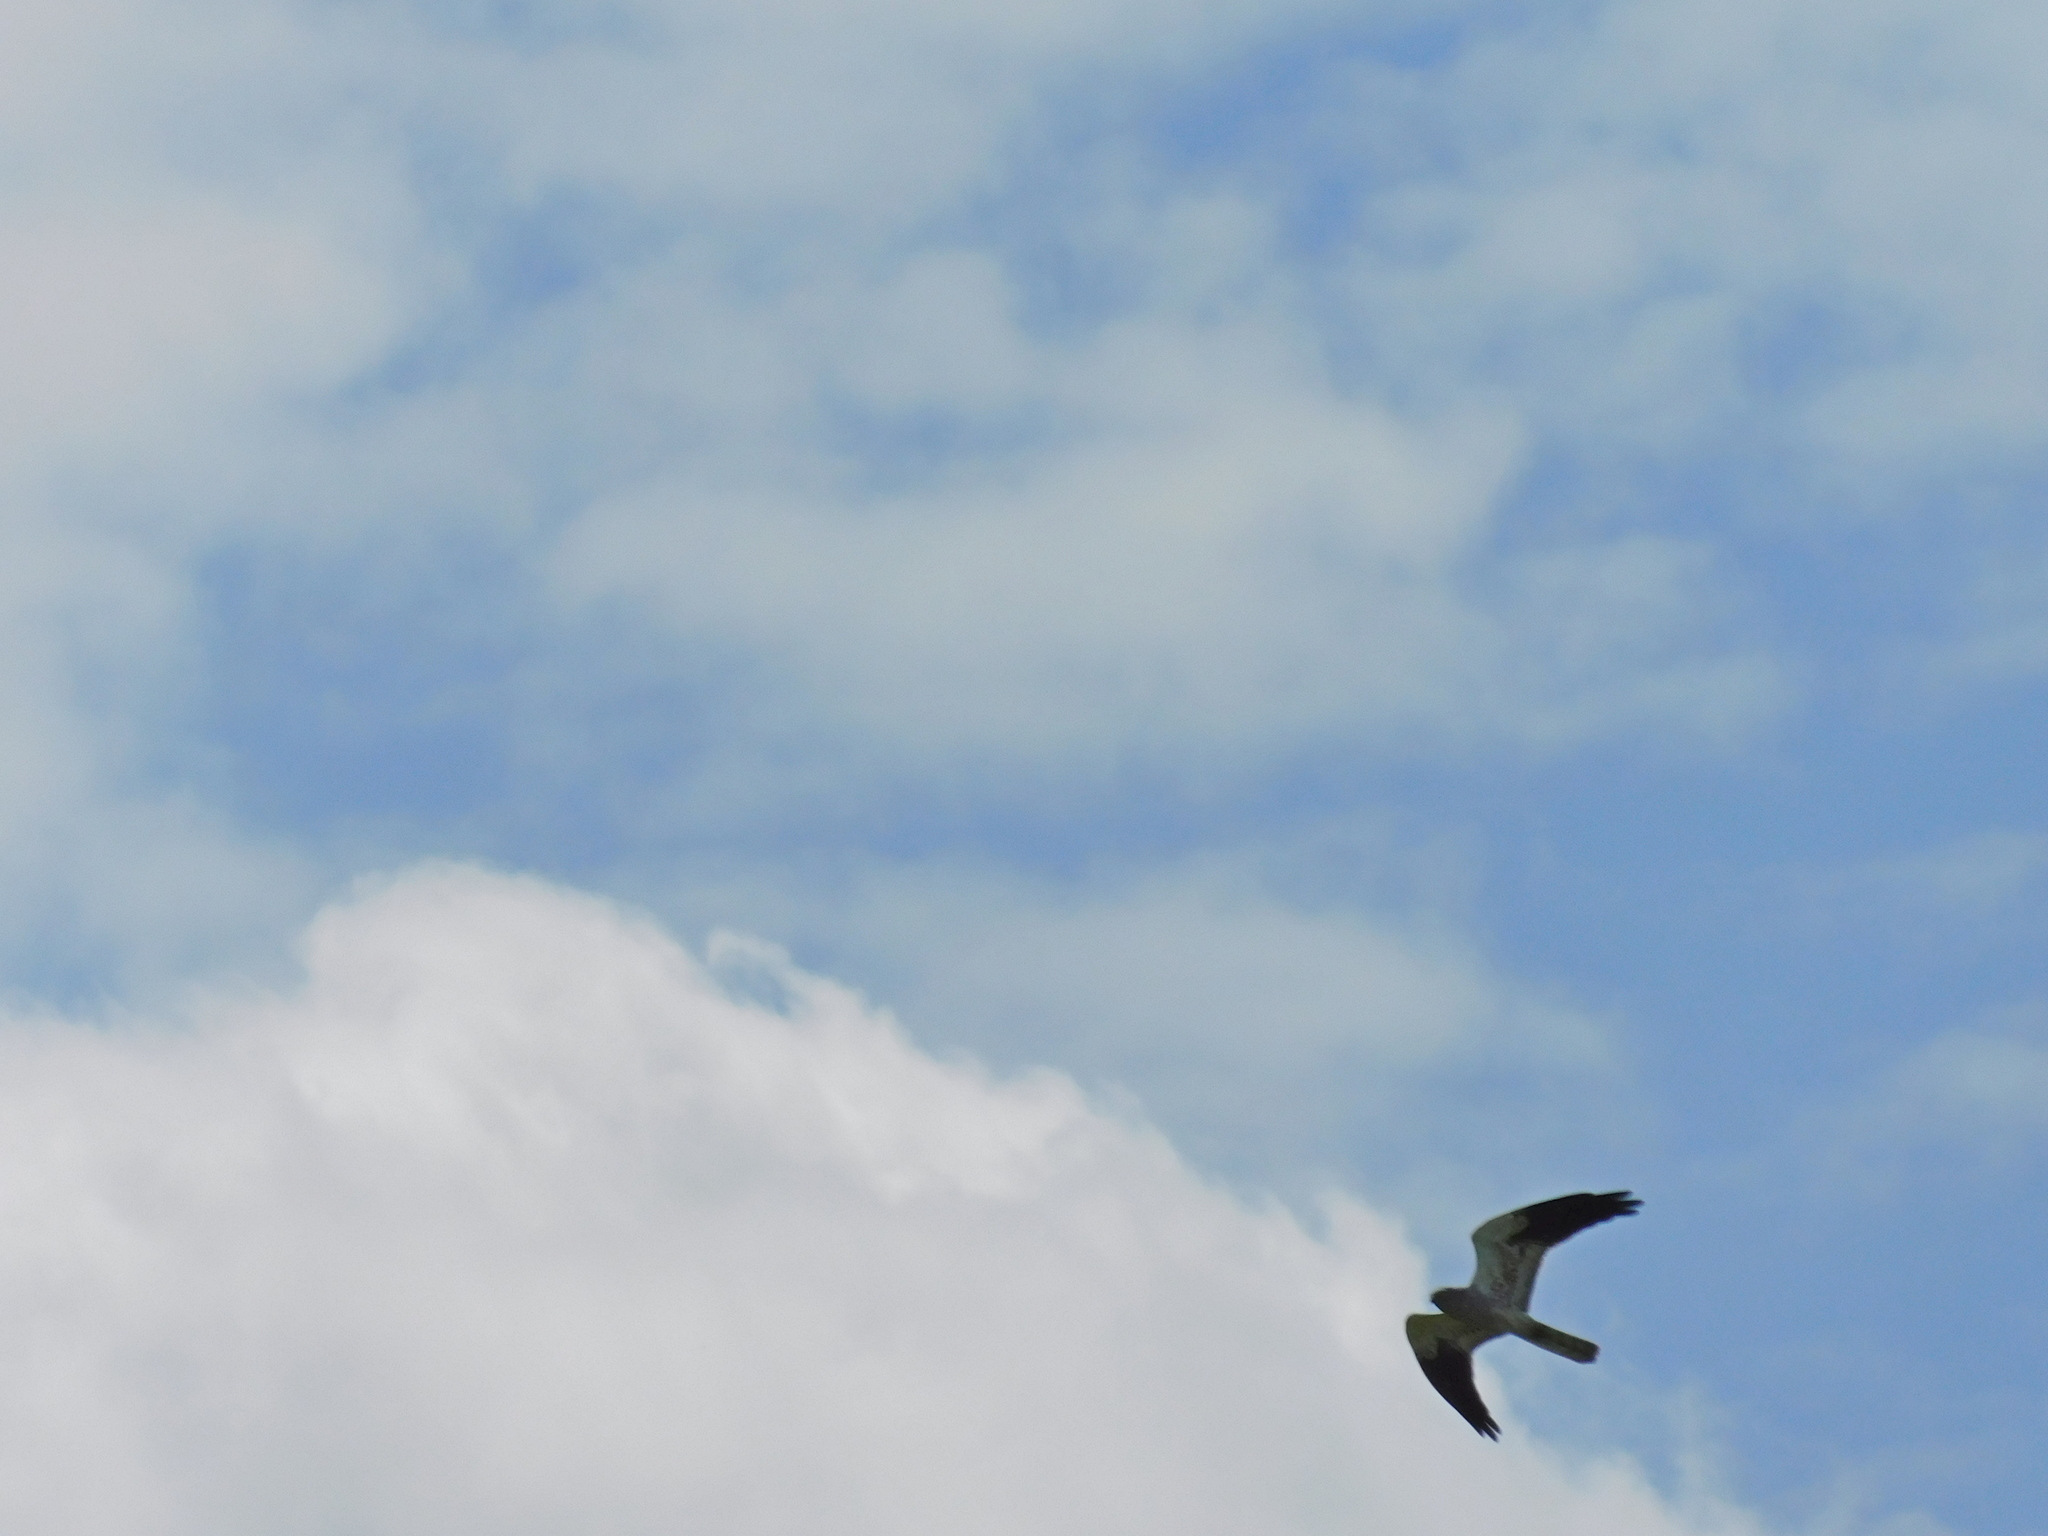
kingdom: Animalia
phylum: Chordata
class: Aves
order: Accipitriformes
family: Accipitridae
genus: Circus
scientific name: Circus pygargus
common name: Montagu's harrier
